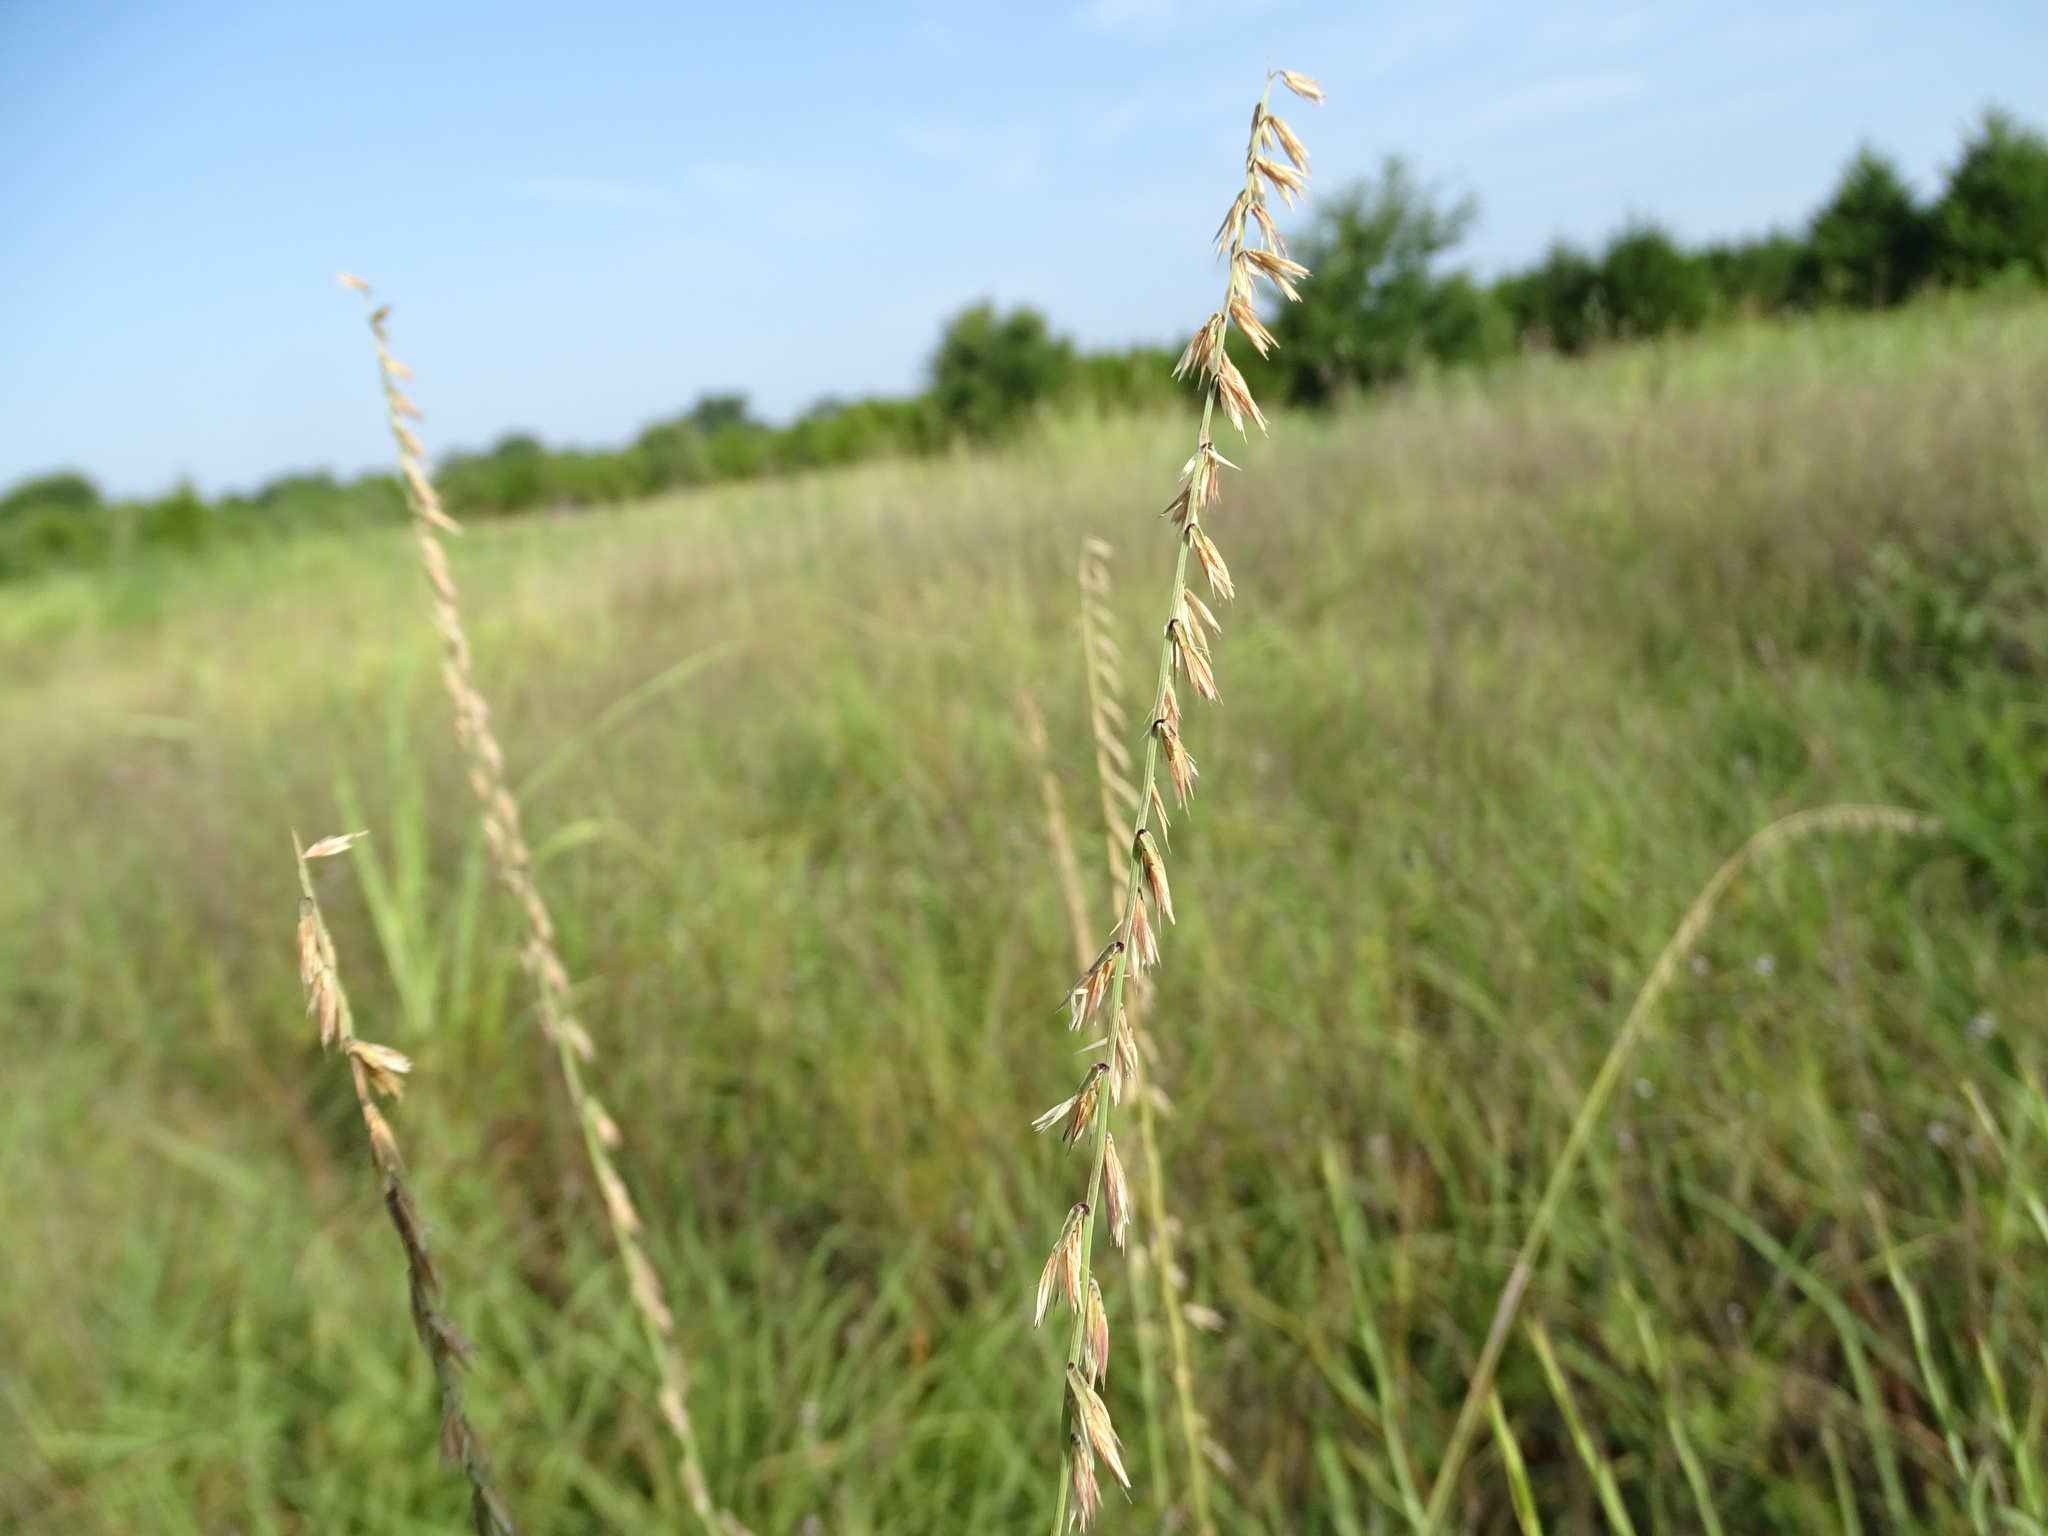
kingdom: Plantae
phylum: Tracheophyta
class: Liliopsida
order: Poales
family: Poaceae
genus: Bouteloua
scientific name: Bouteloua curtipendula
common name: Side-oats grama
